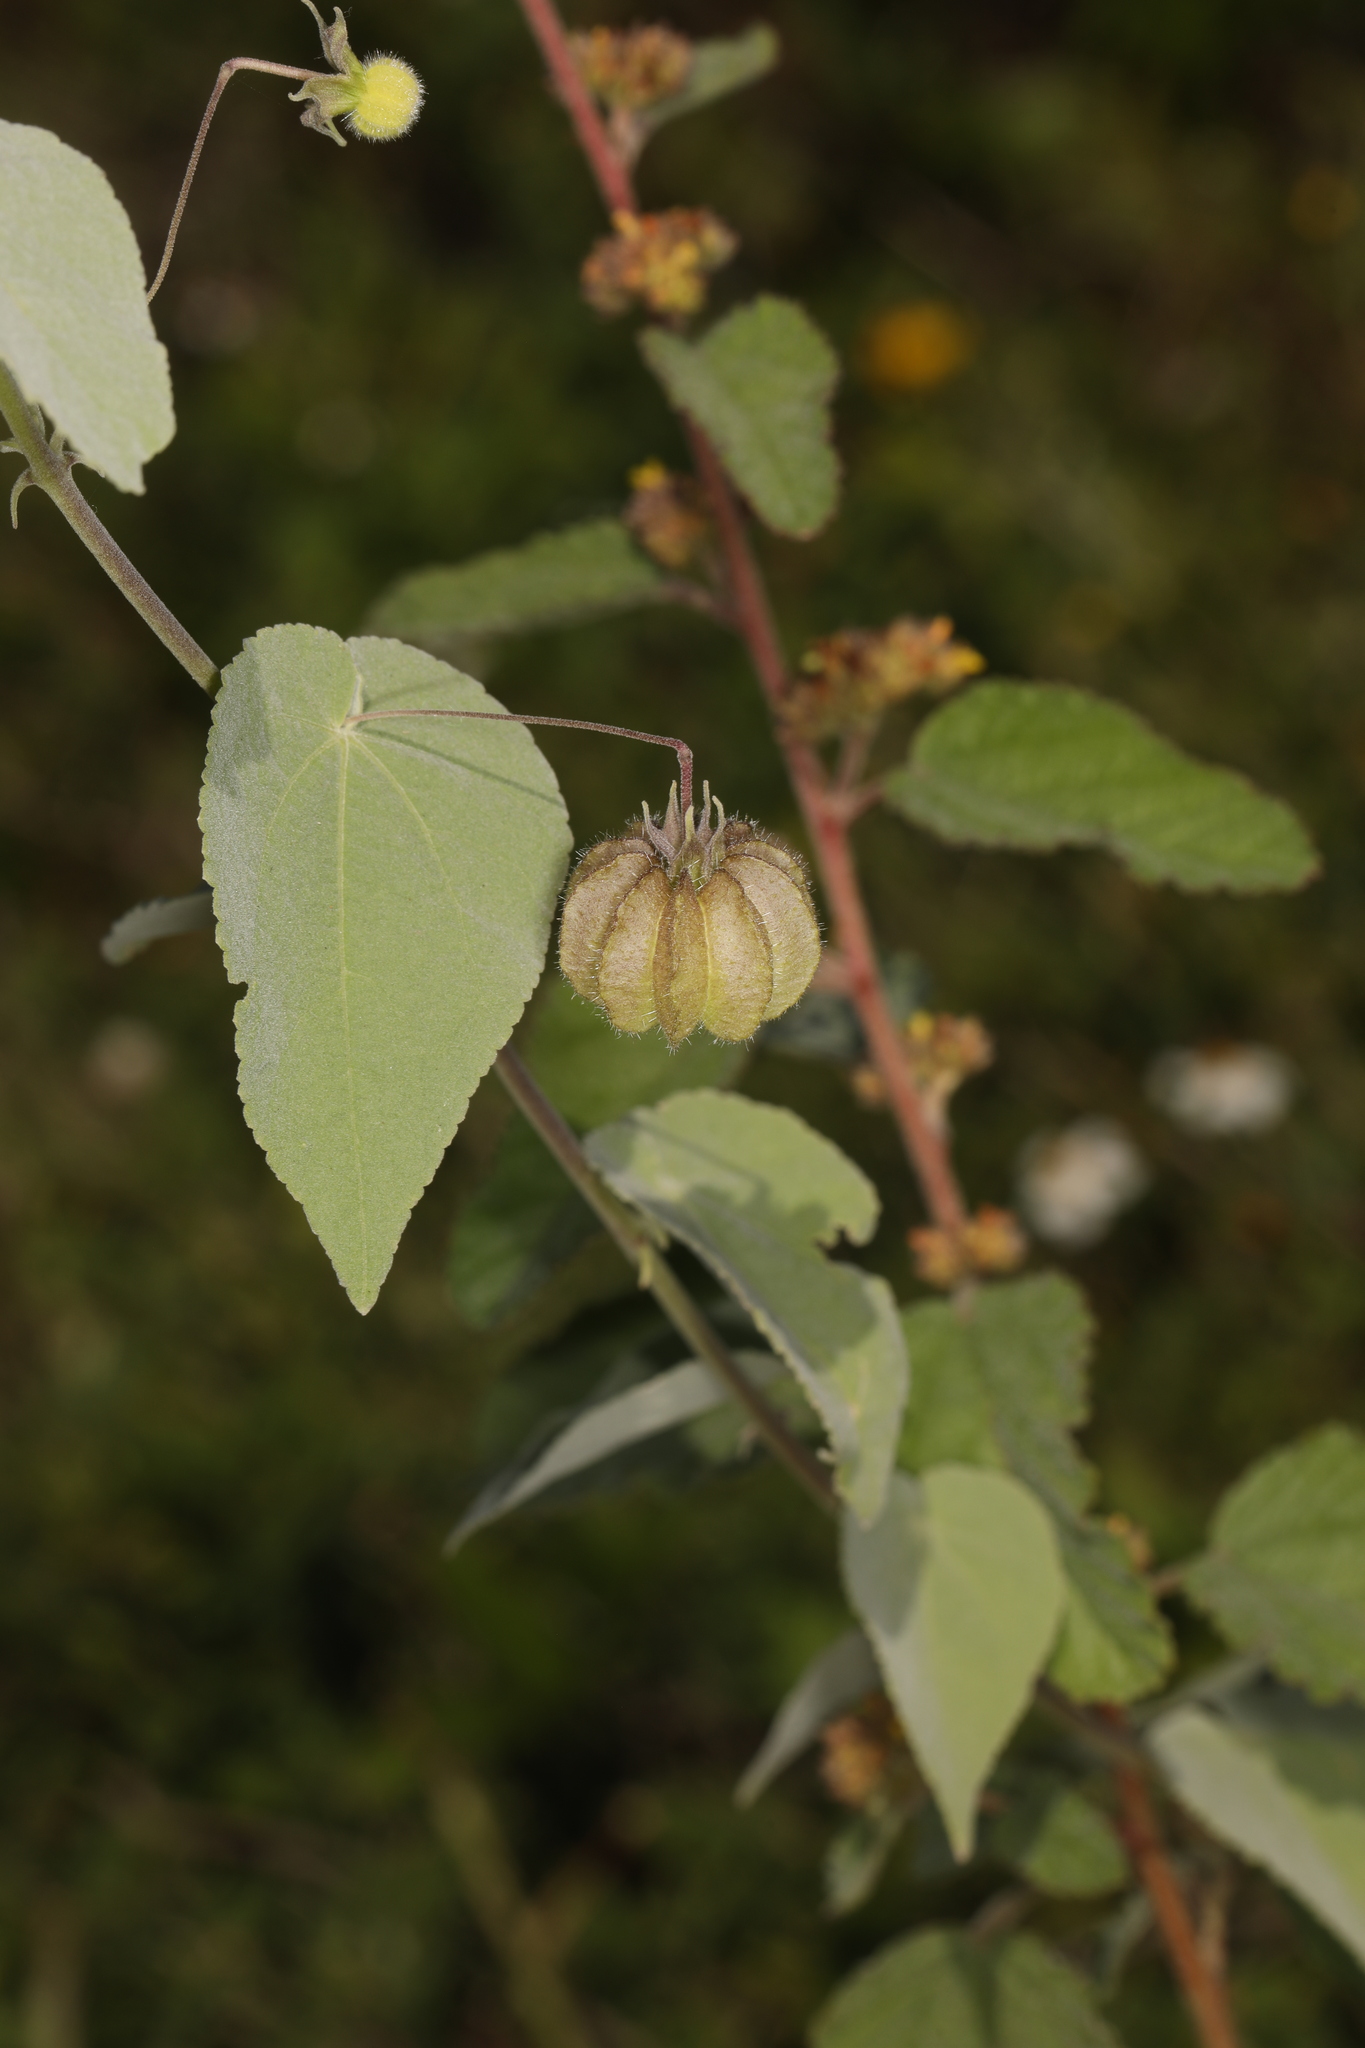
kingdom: Plantae
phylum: Tracheophyta
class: Magnoliopsida
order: Malvales
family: Malvaceae
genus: Herissantia
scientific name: Herissantia crispa
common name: Bladdermallow
